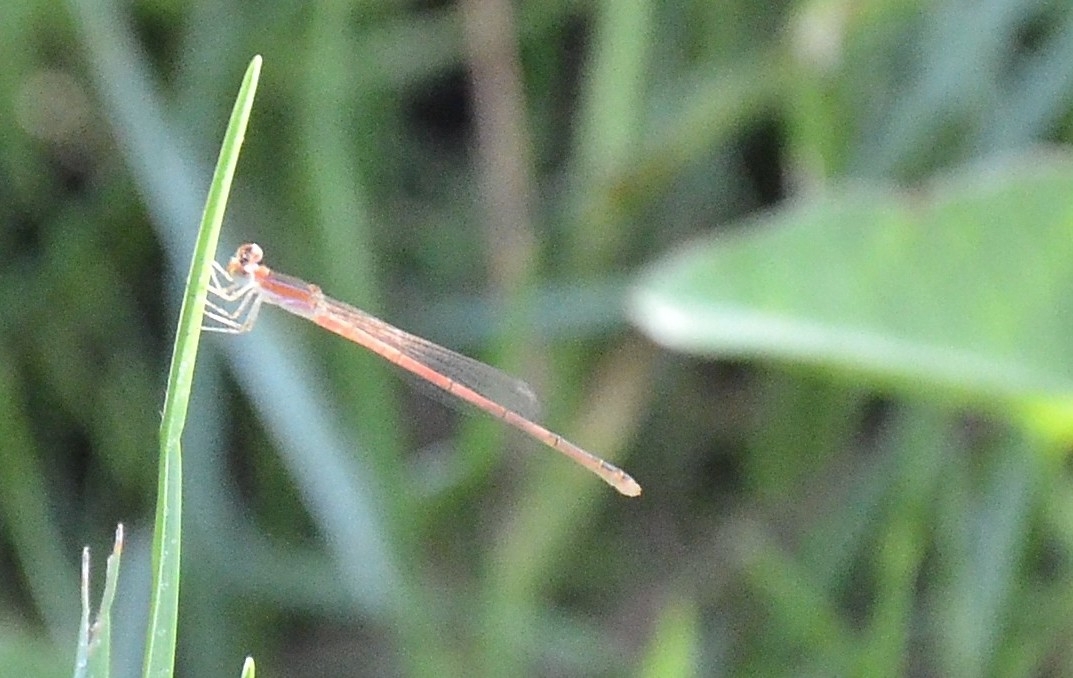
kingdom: Animalia
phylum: Arthropoda
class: Insecta
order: Odonata
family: Coenagrionidae
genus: Agriocnemis
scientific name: Agriocnemis pygmaea
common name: Pygmy wisp
